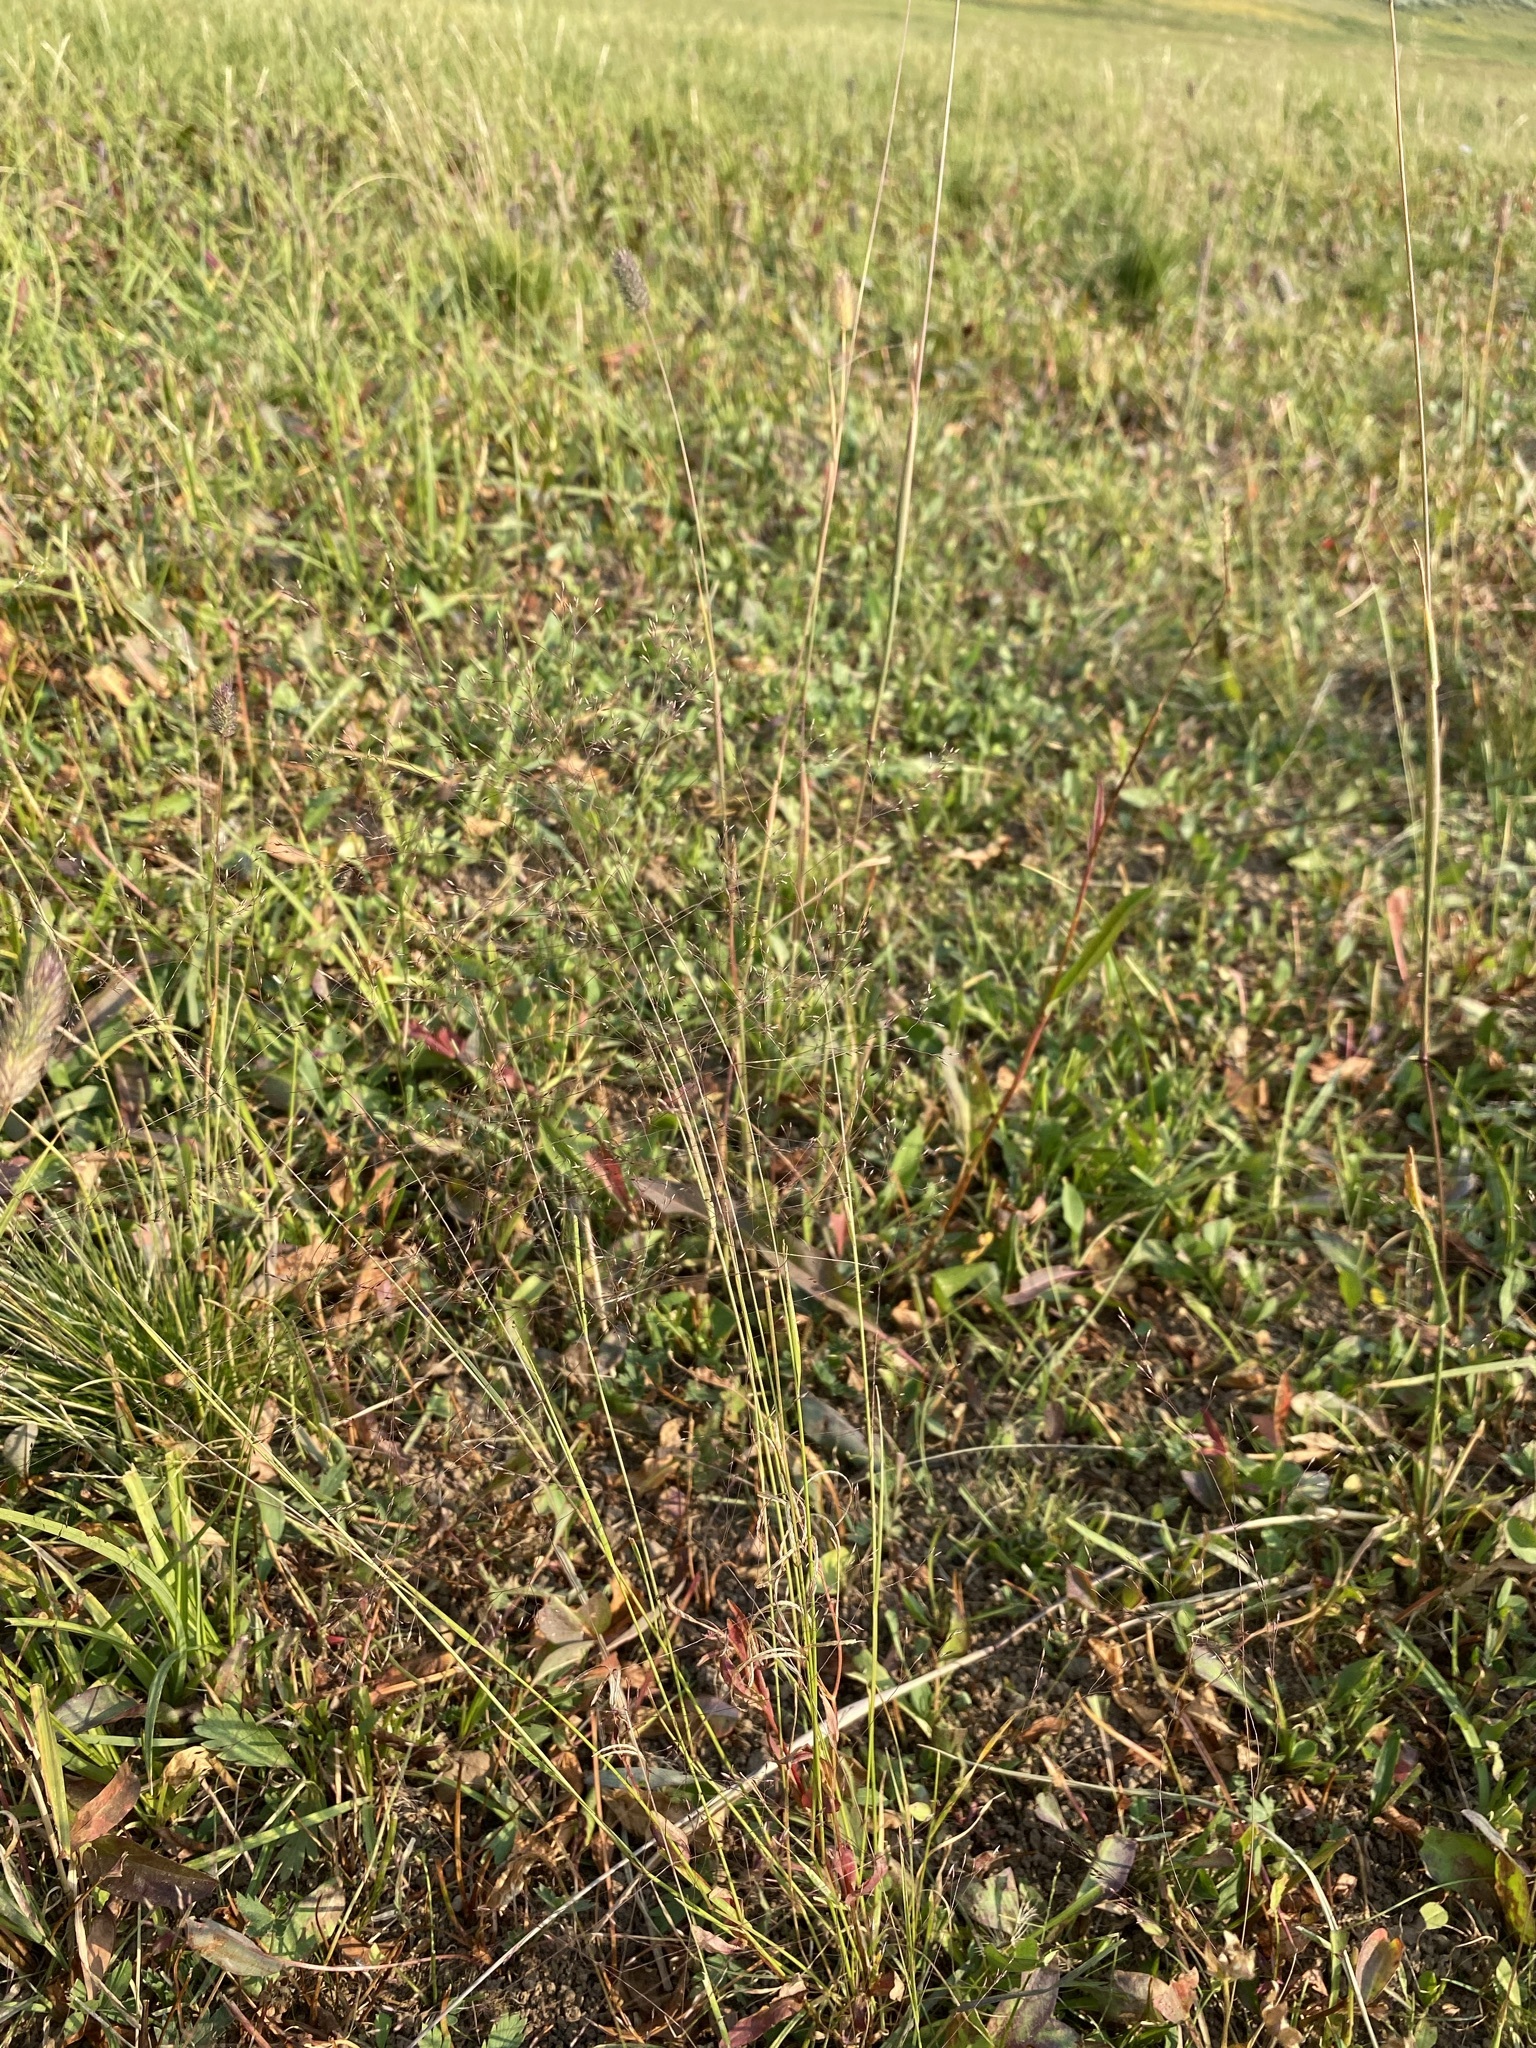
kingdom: Plantae
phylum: Tracheophyta
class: Liliopsida
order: Poales
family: Poaceae
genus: Agrostis
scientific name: Agrostis scabra
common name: Rough bent
